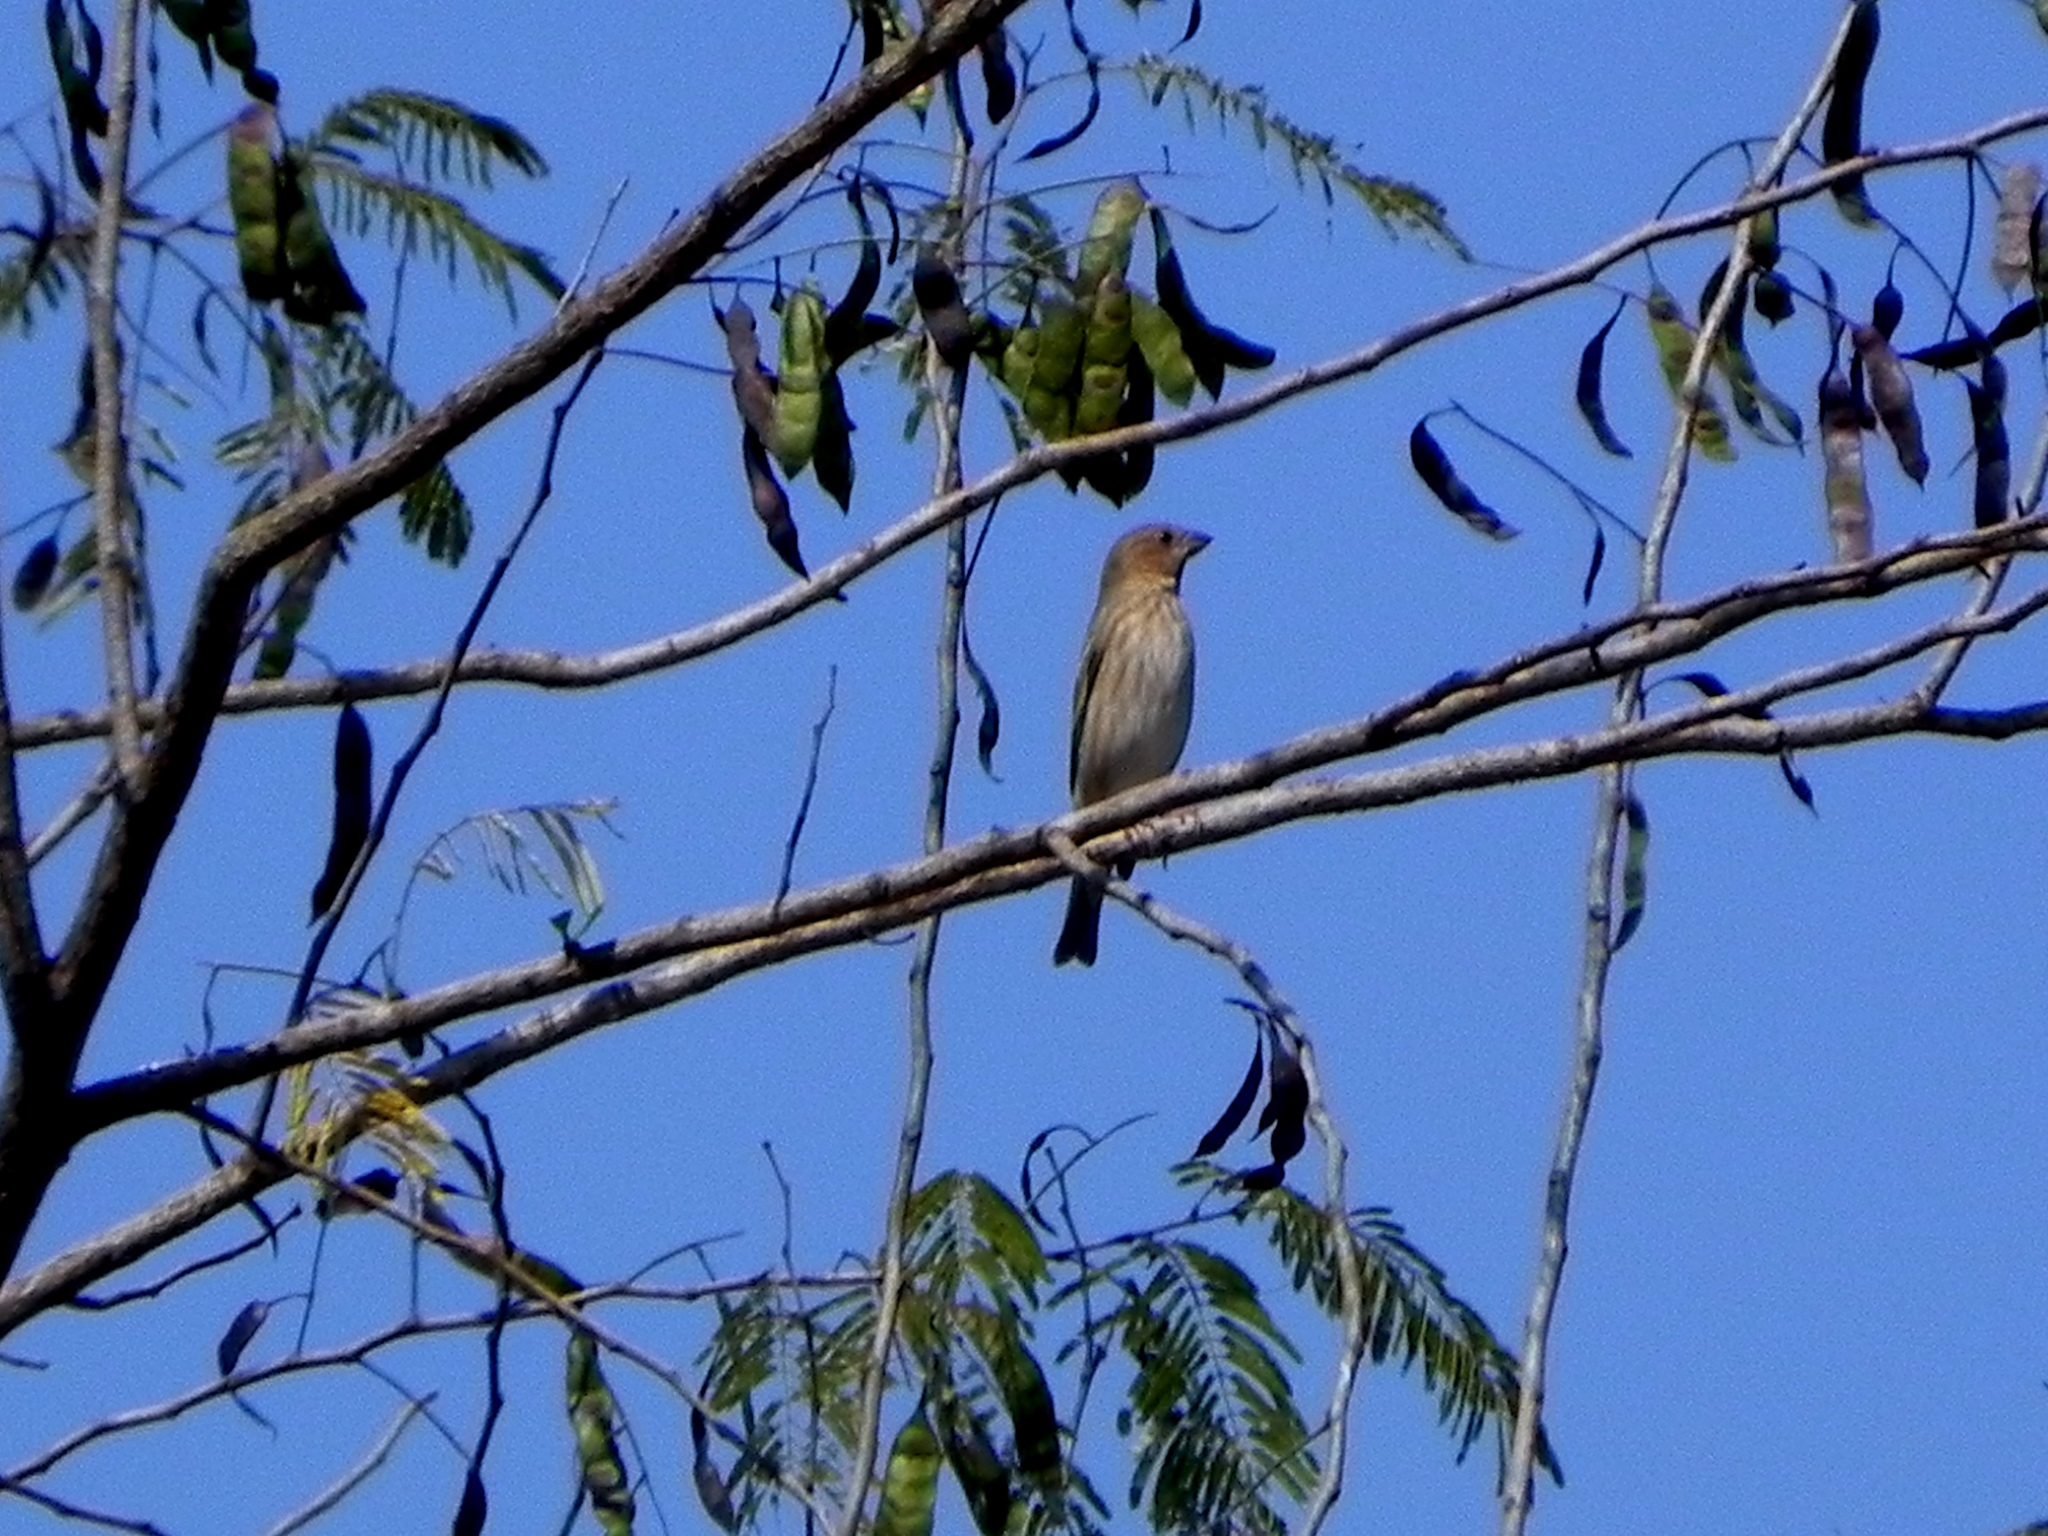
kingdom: Animalia
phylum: Chordata
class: Aves
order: Passeriformes
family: Fringillidae
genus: Carpodacus
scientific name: Carpodacus erythrinus
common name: Common rosefinch
